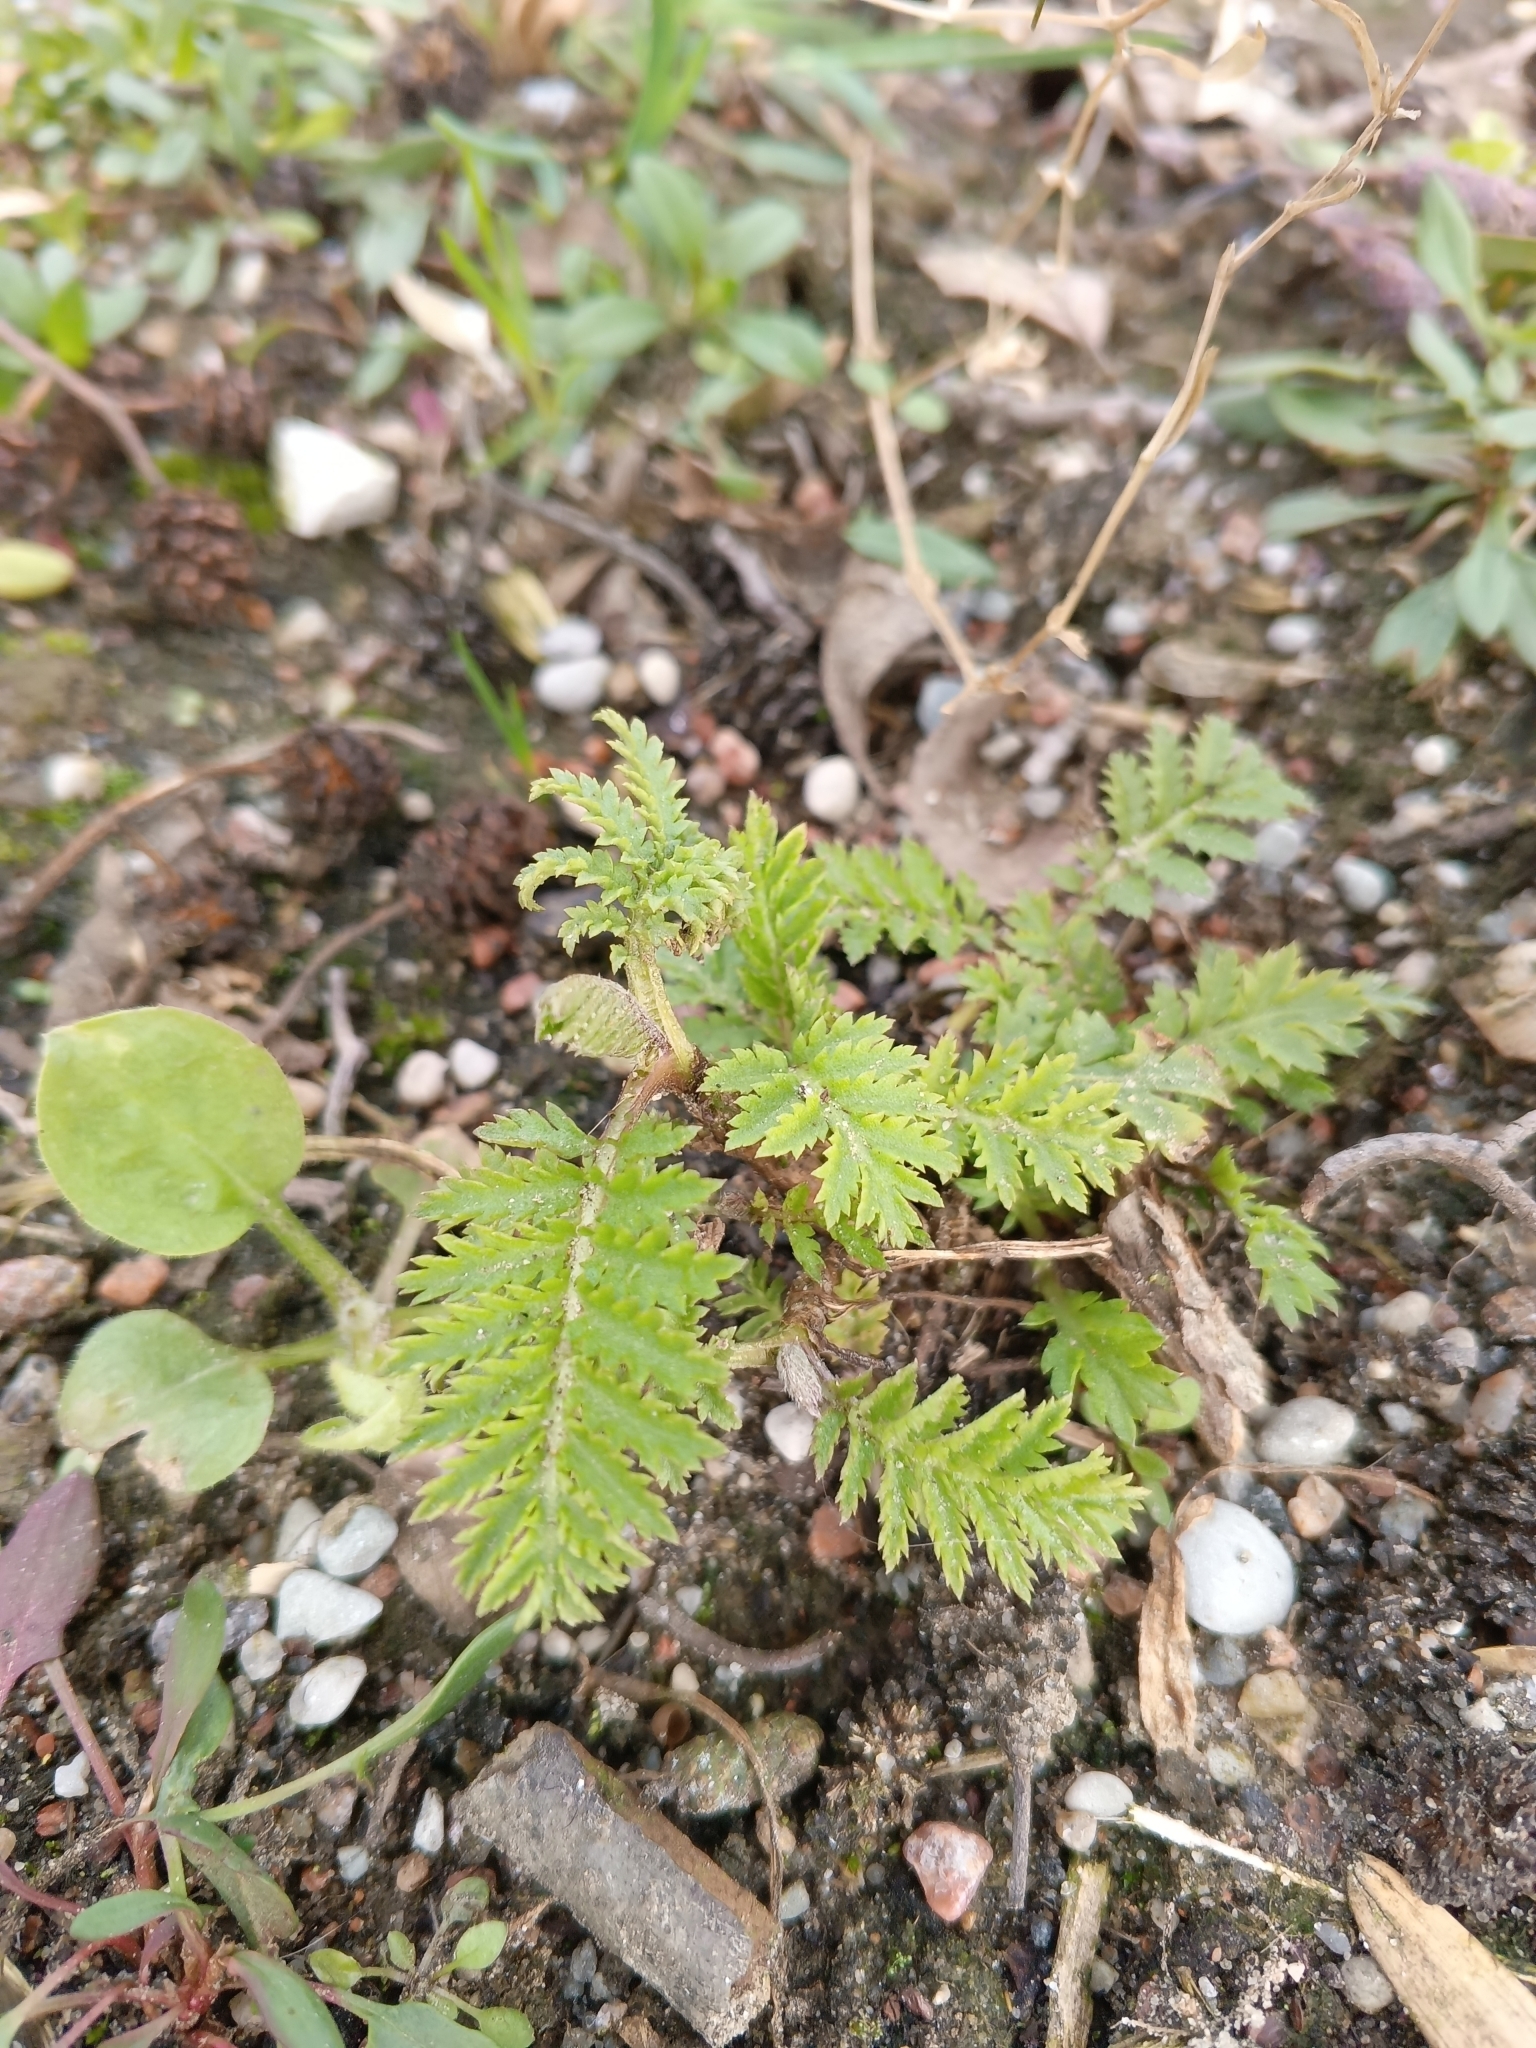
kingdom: Plantae
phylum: Tracheophyta
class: Magnoliopsida
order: Asterales
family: Asteraceae
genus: Tanacetum
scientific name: Tanacetum vulgare
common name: Common tansy
